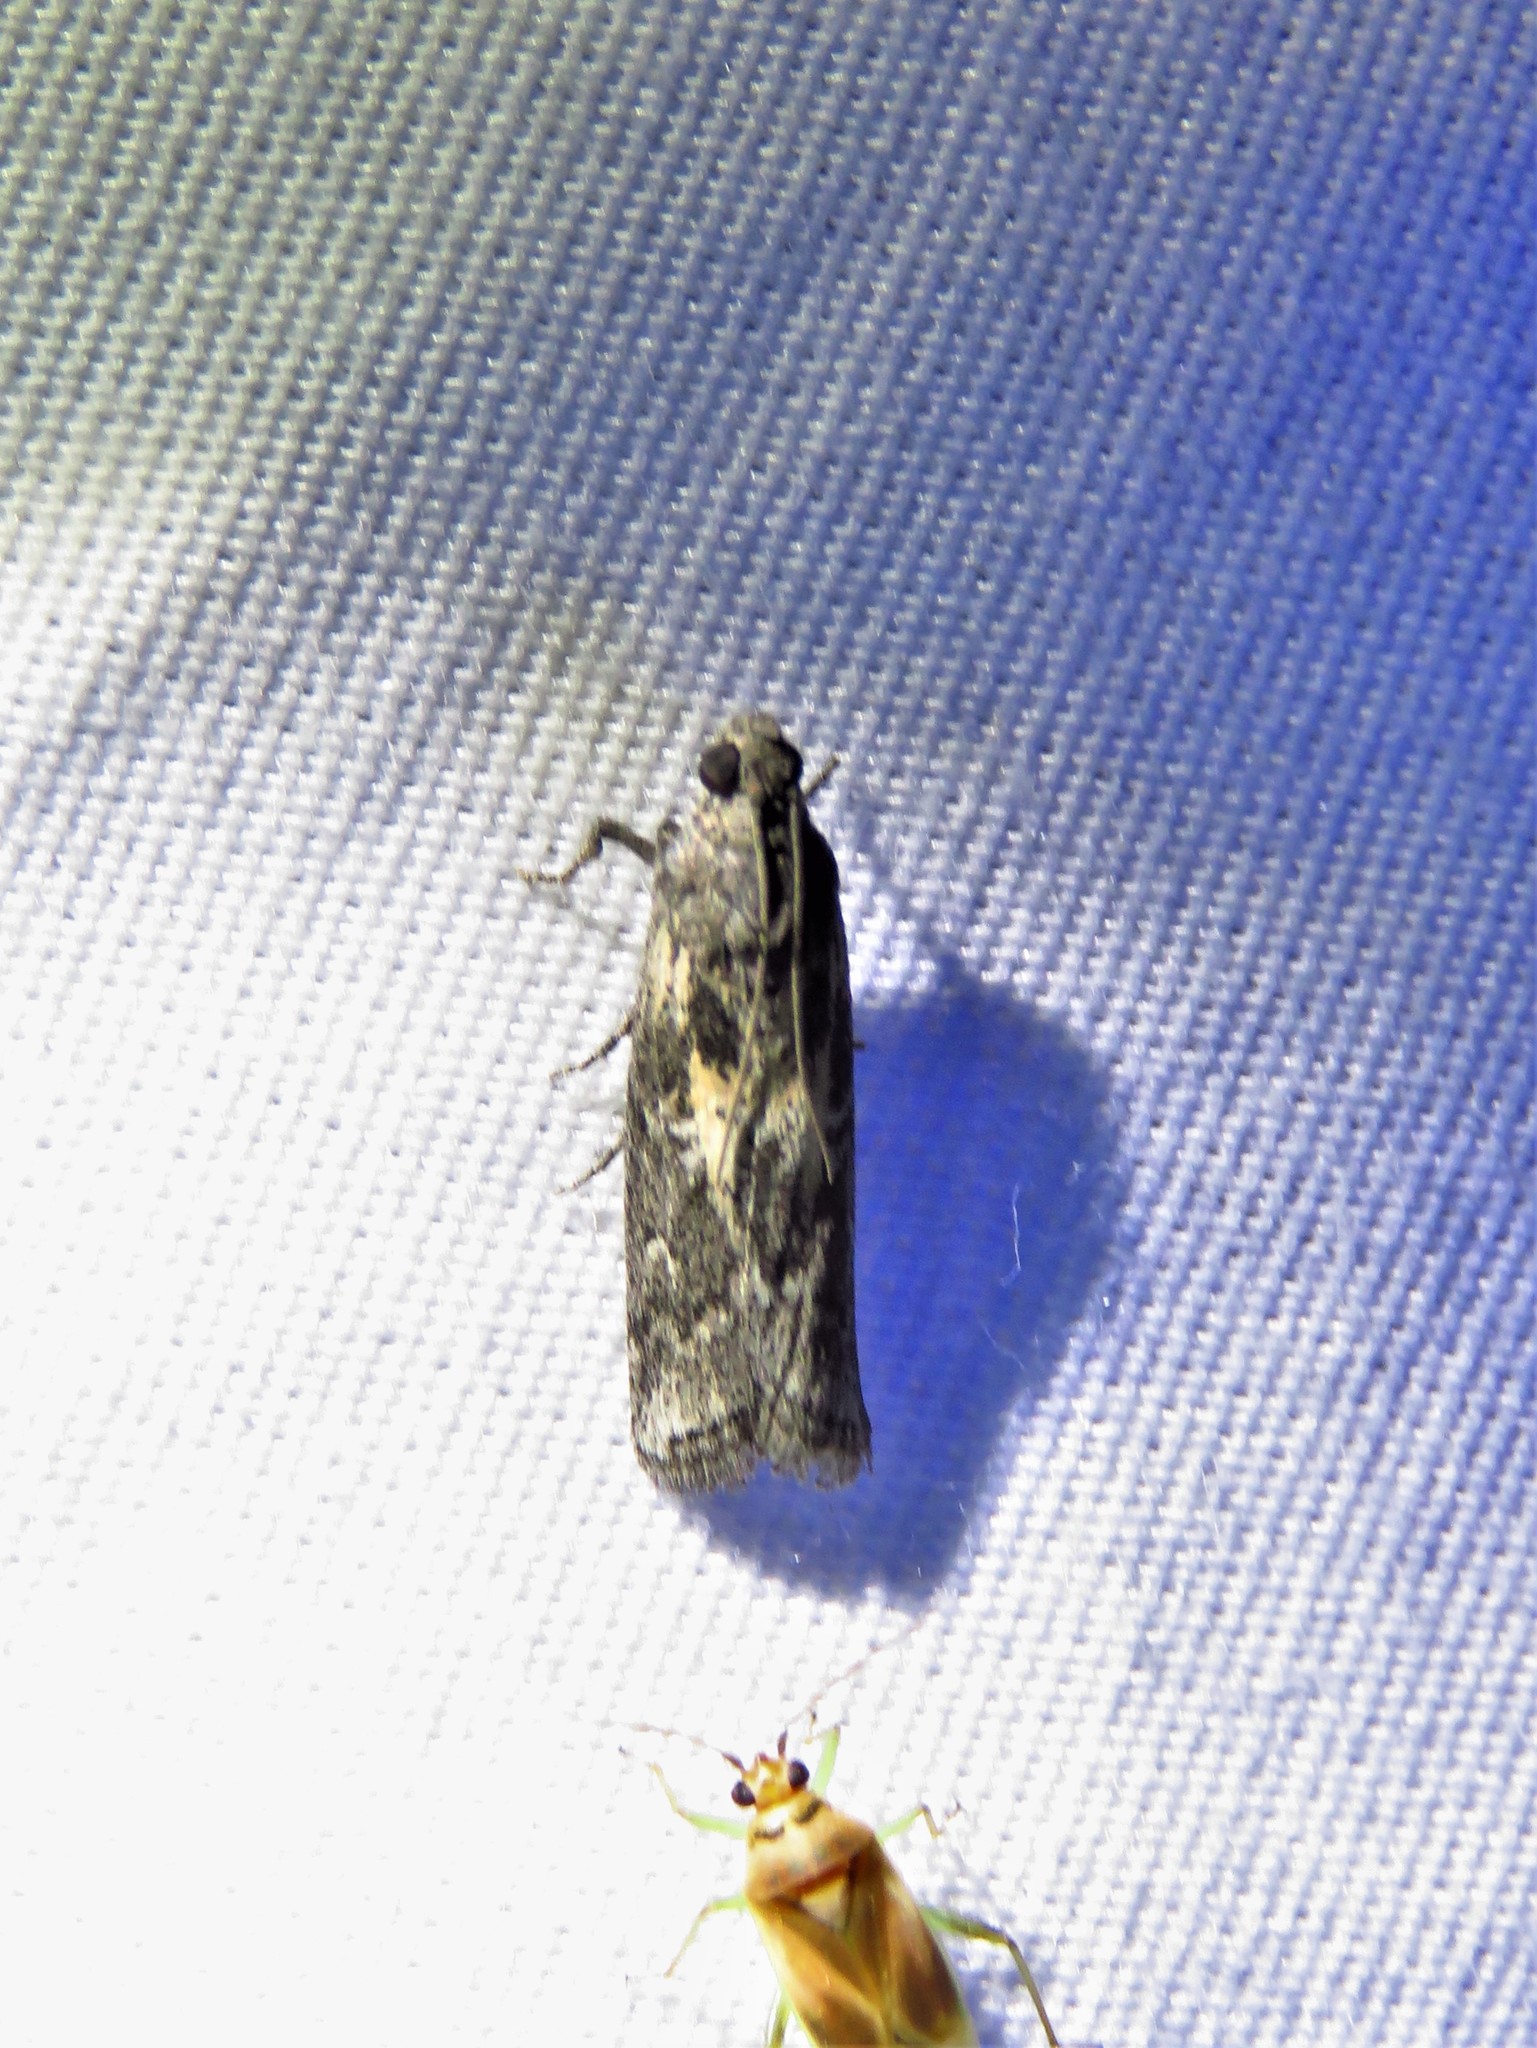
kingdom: Animalia
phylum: Arthropoda
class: Insecta
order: Lepidoptera
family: Pyralidae
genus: Tacoma
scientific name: Tacoma feriella
